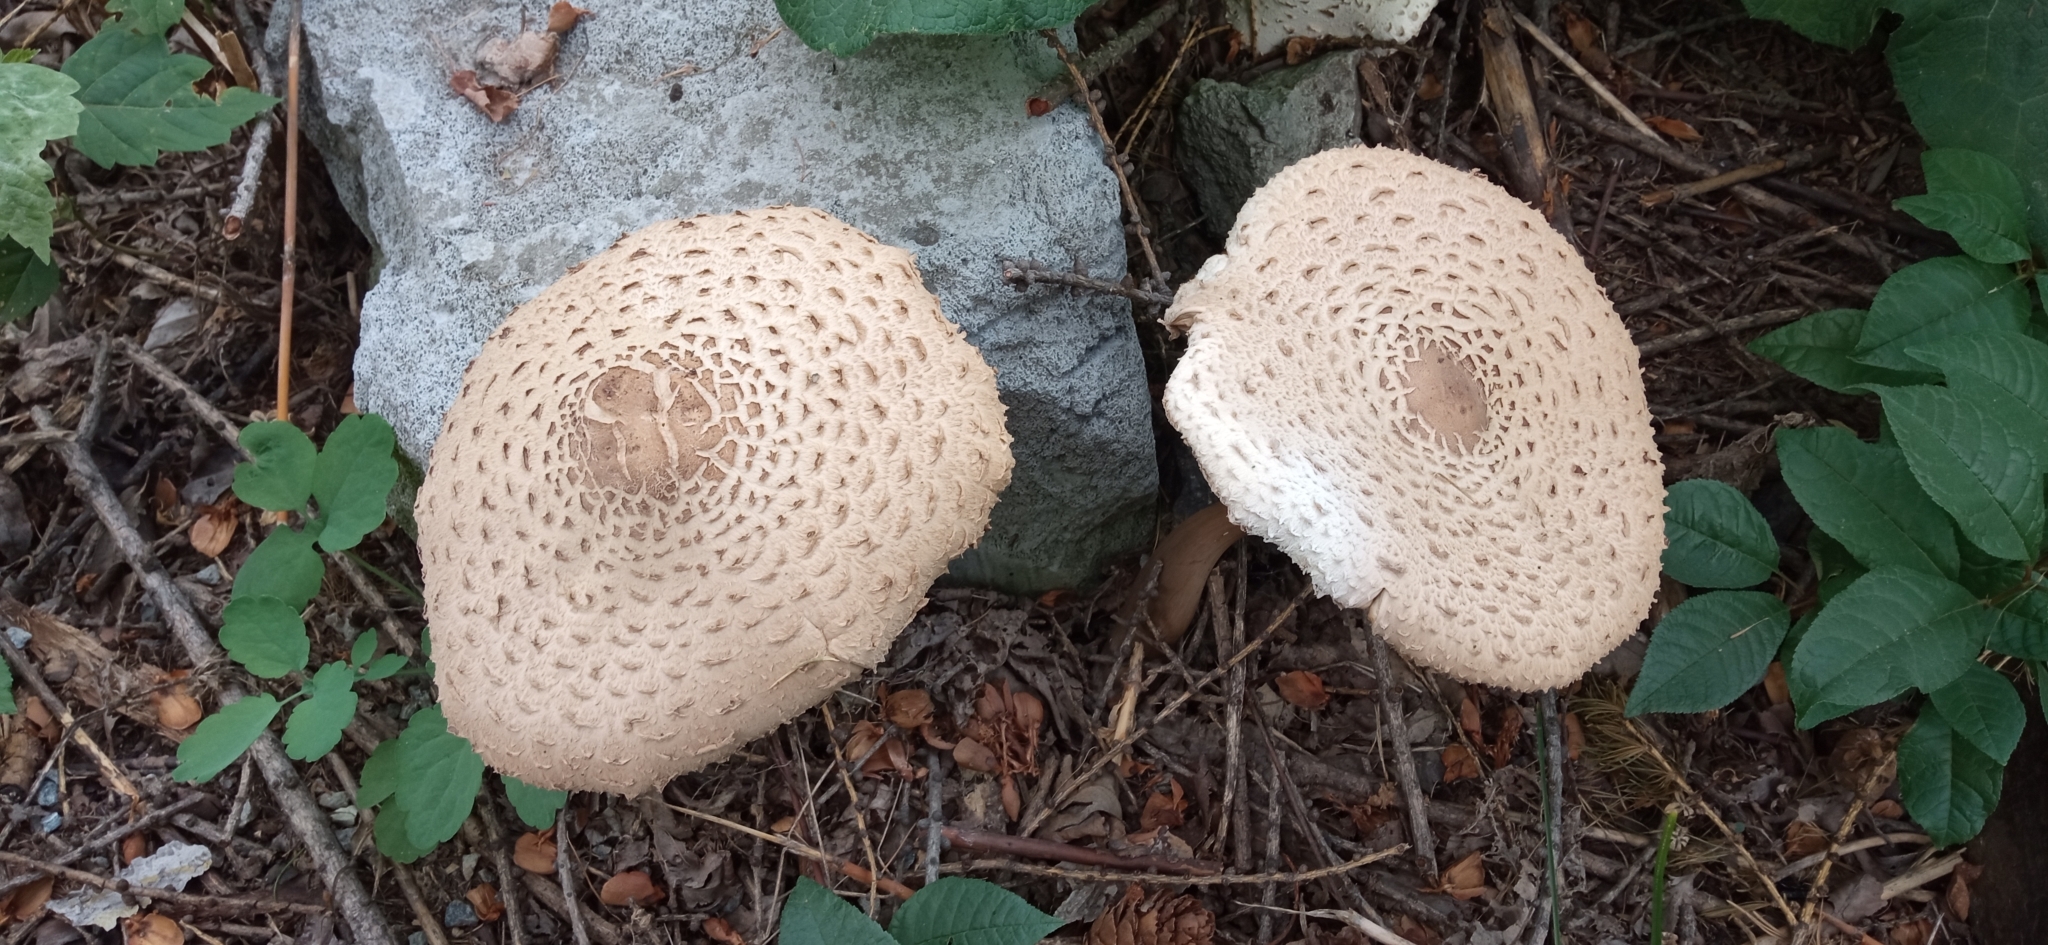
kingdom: Fungi
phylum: Basidiomycota
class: Agaricomycetes
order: Agaricales
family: Agaricaceae
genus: Macrolepiota
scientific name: Macrolepiota procera
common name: Parasol
